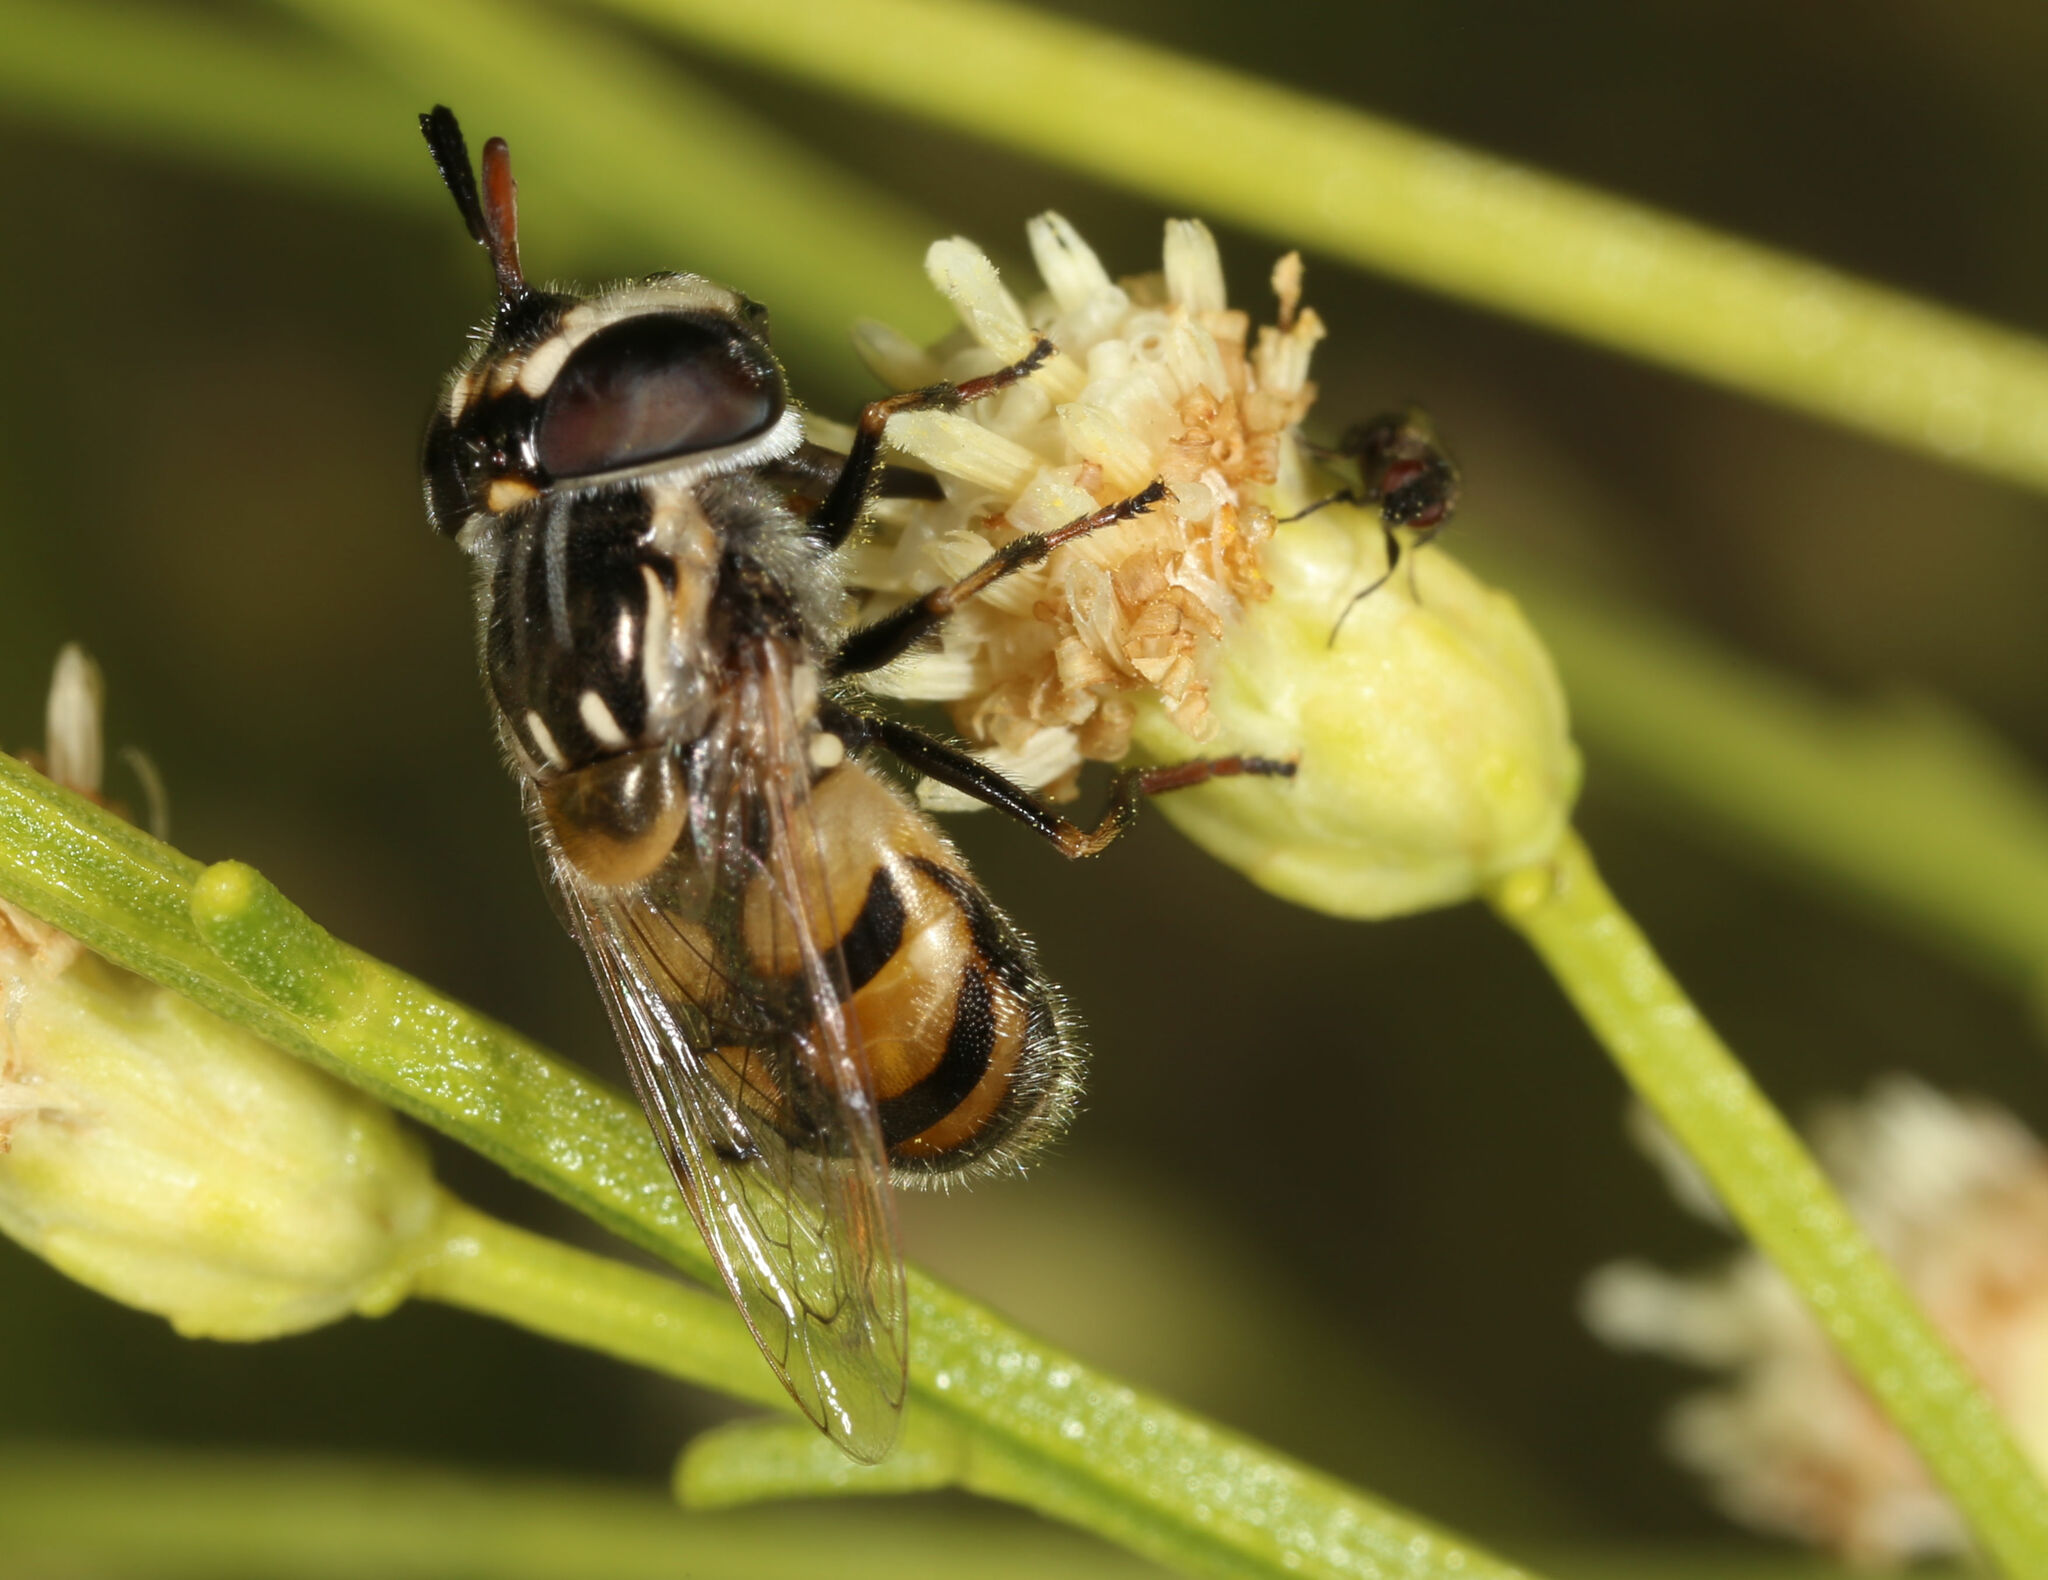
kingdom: Animalia
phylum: Arthropoda
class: Insecta
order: Diptera
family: Syrphidae
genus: Copestylum
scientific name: Copestylum marginatum
